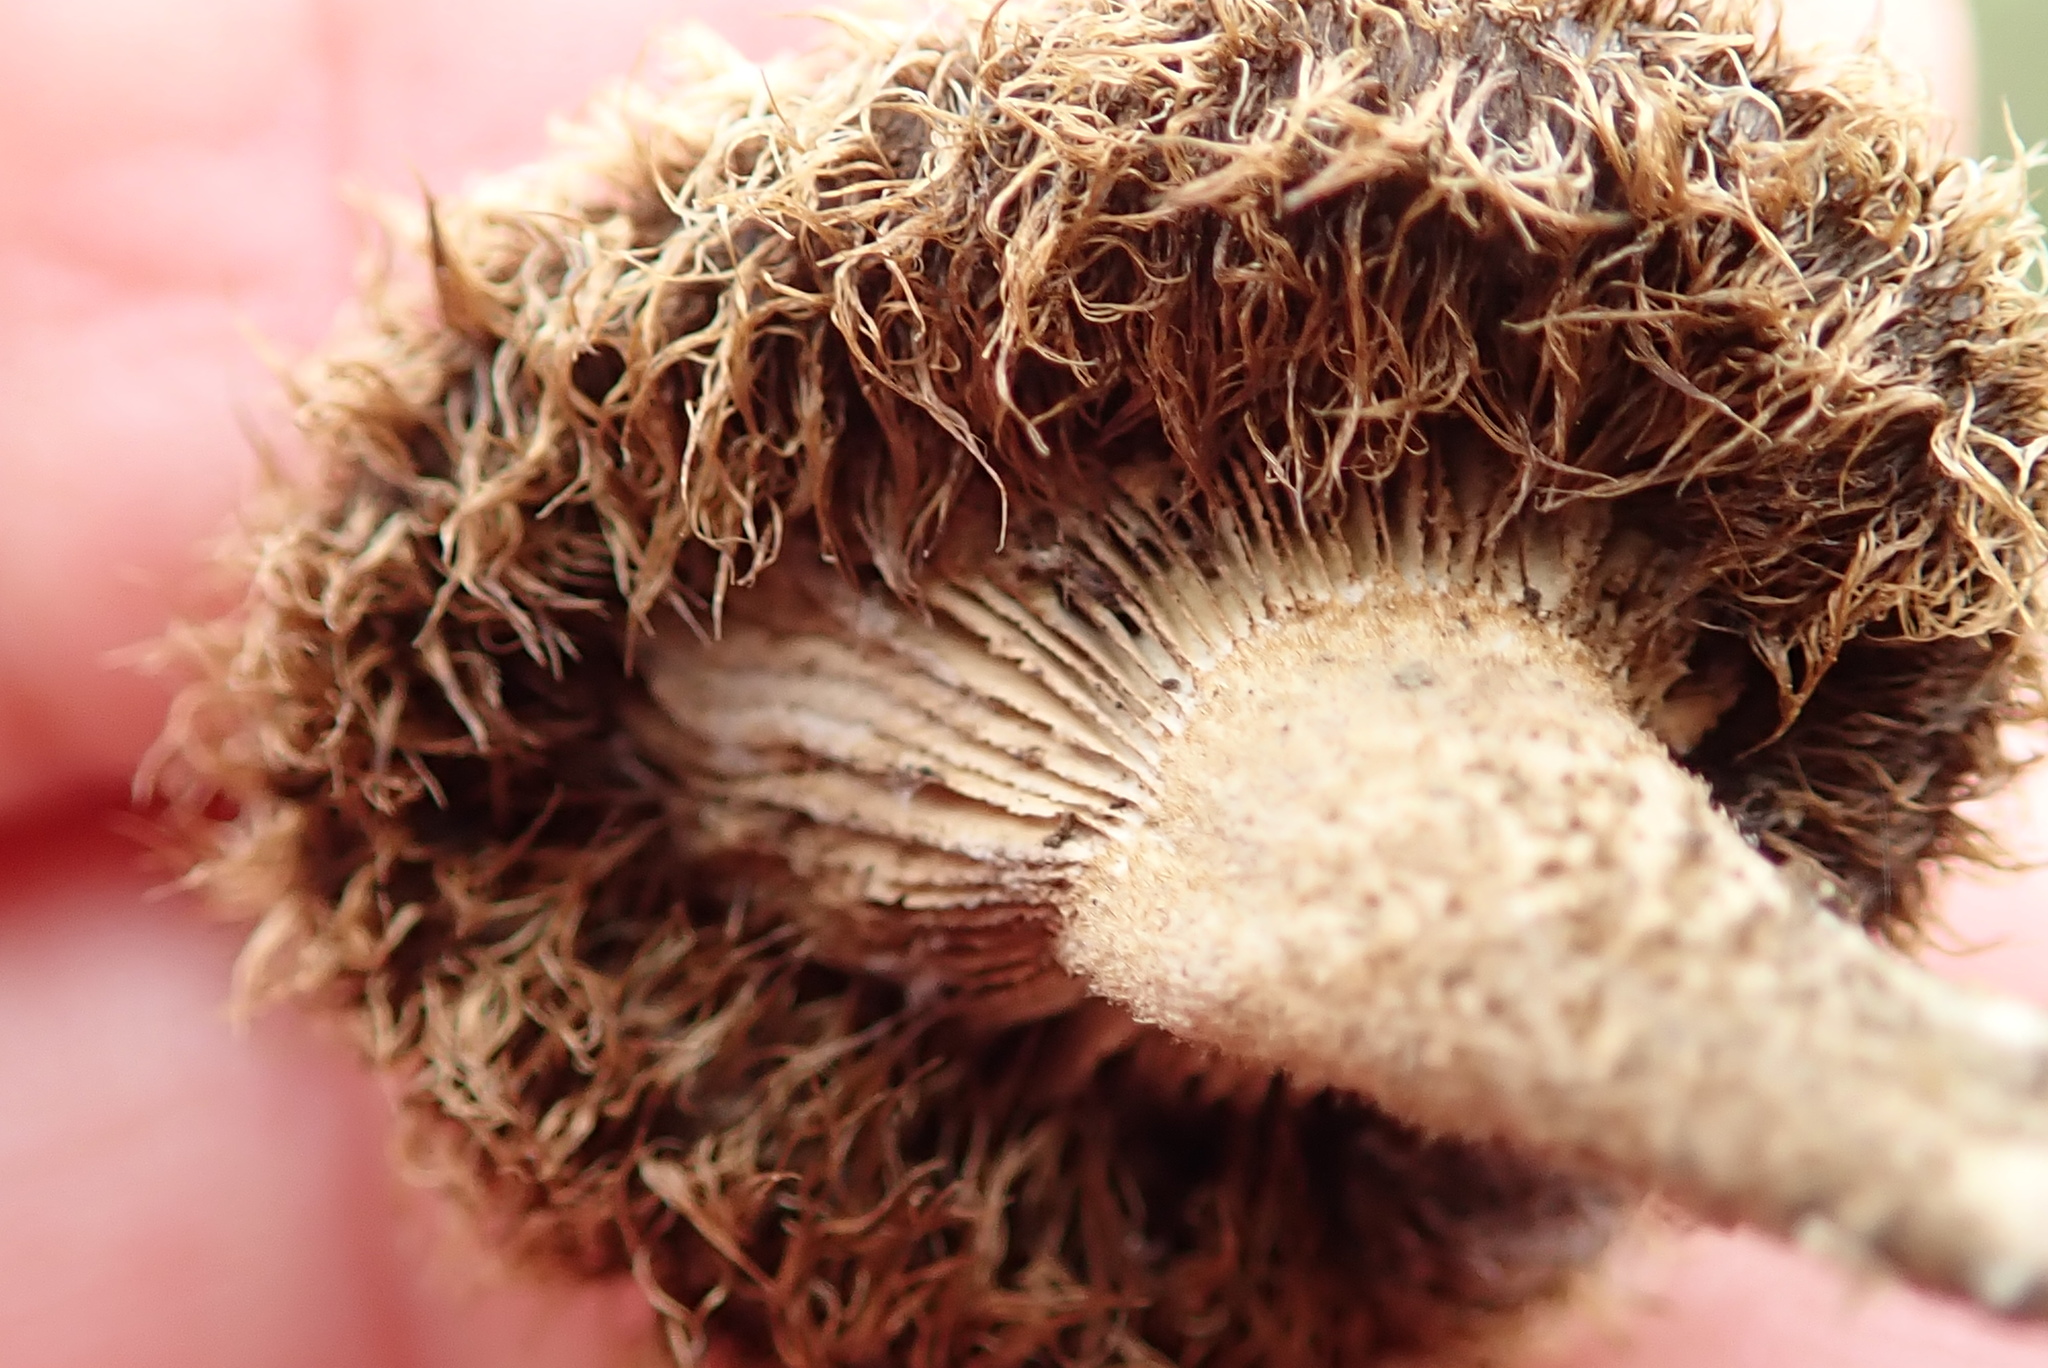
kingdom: Fungi
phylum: Basidiomycota
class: Agaricomycetes
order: Polyporales
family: Polyporaceae
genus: Lentinus
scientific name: Lentinus stuppeus
